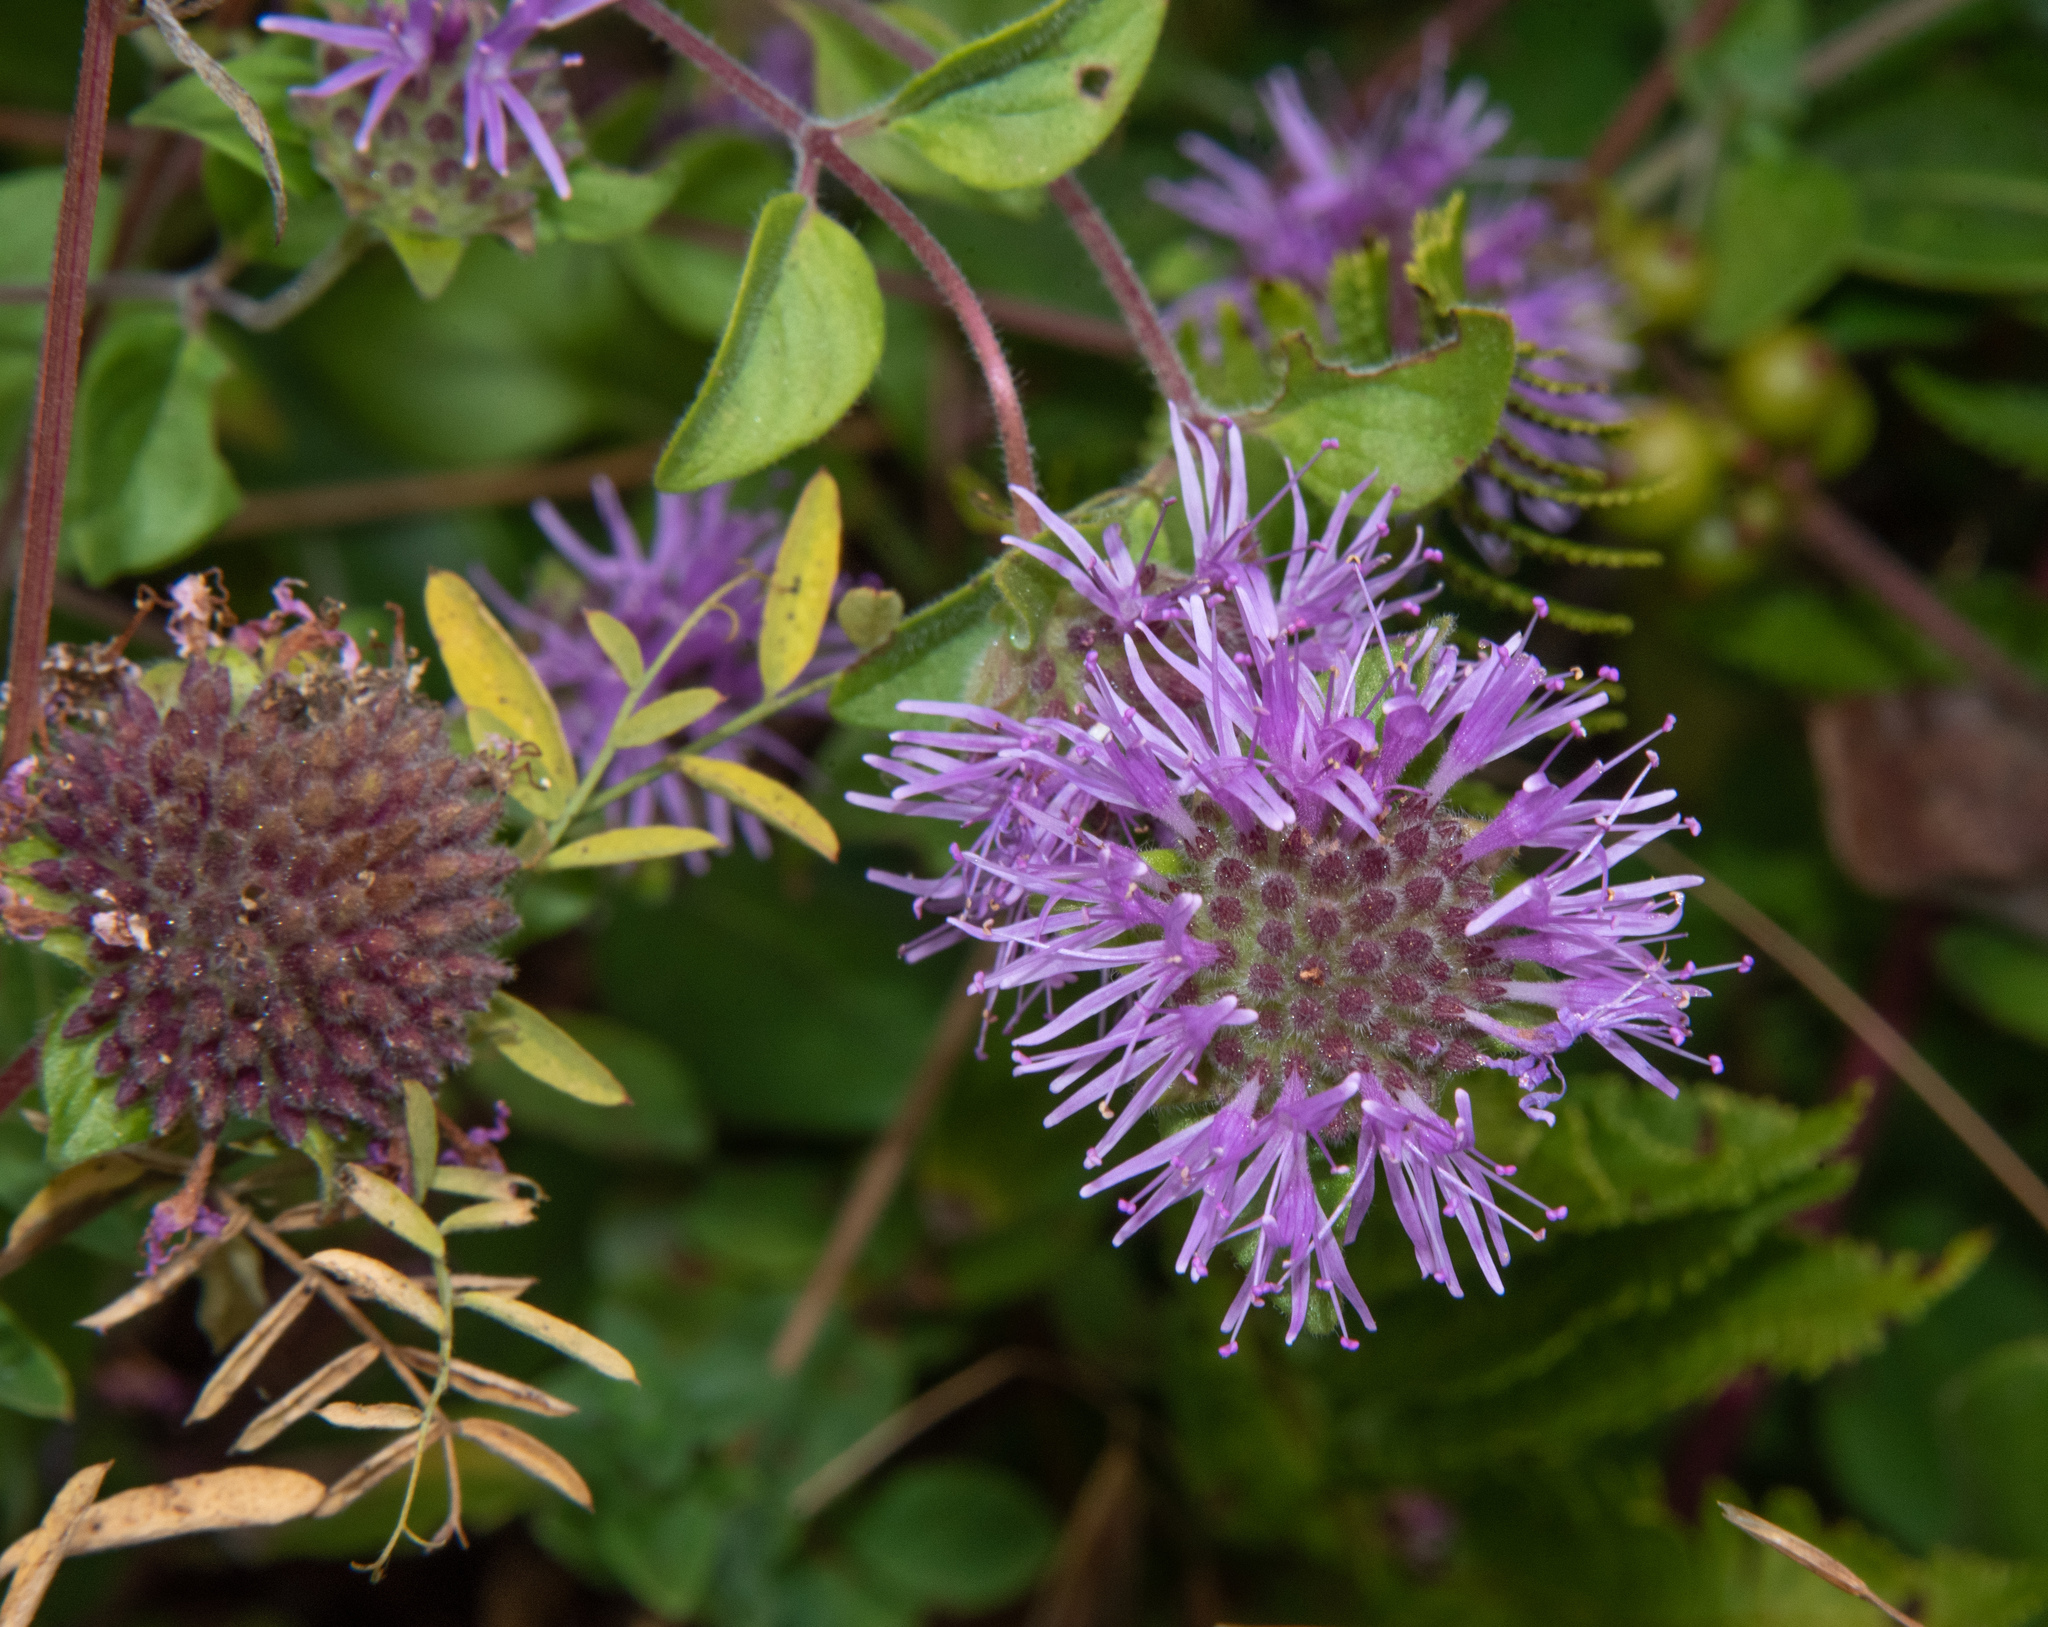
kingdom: Plantae
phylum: Tracheophyta
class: Magnoliopsida
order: Lamiales
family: Lamiaceae
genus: Monardella
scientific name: Monardella odoratissima
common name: Pacific monardella
